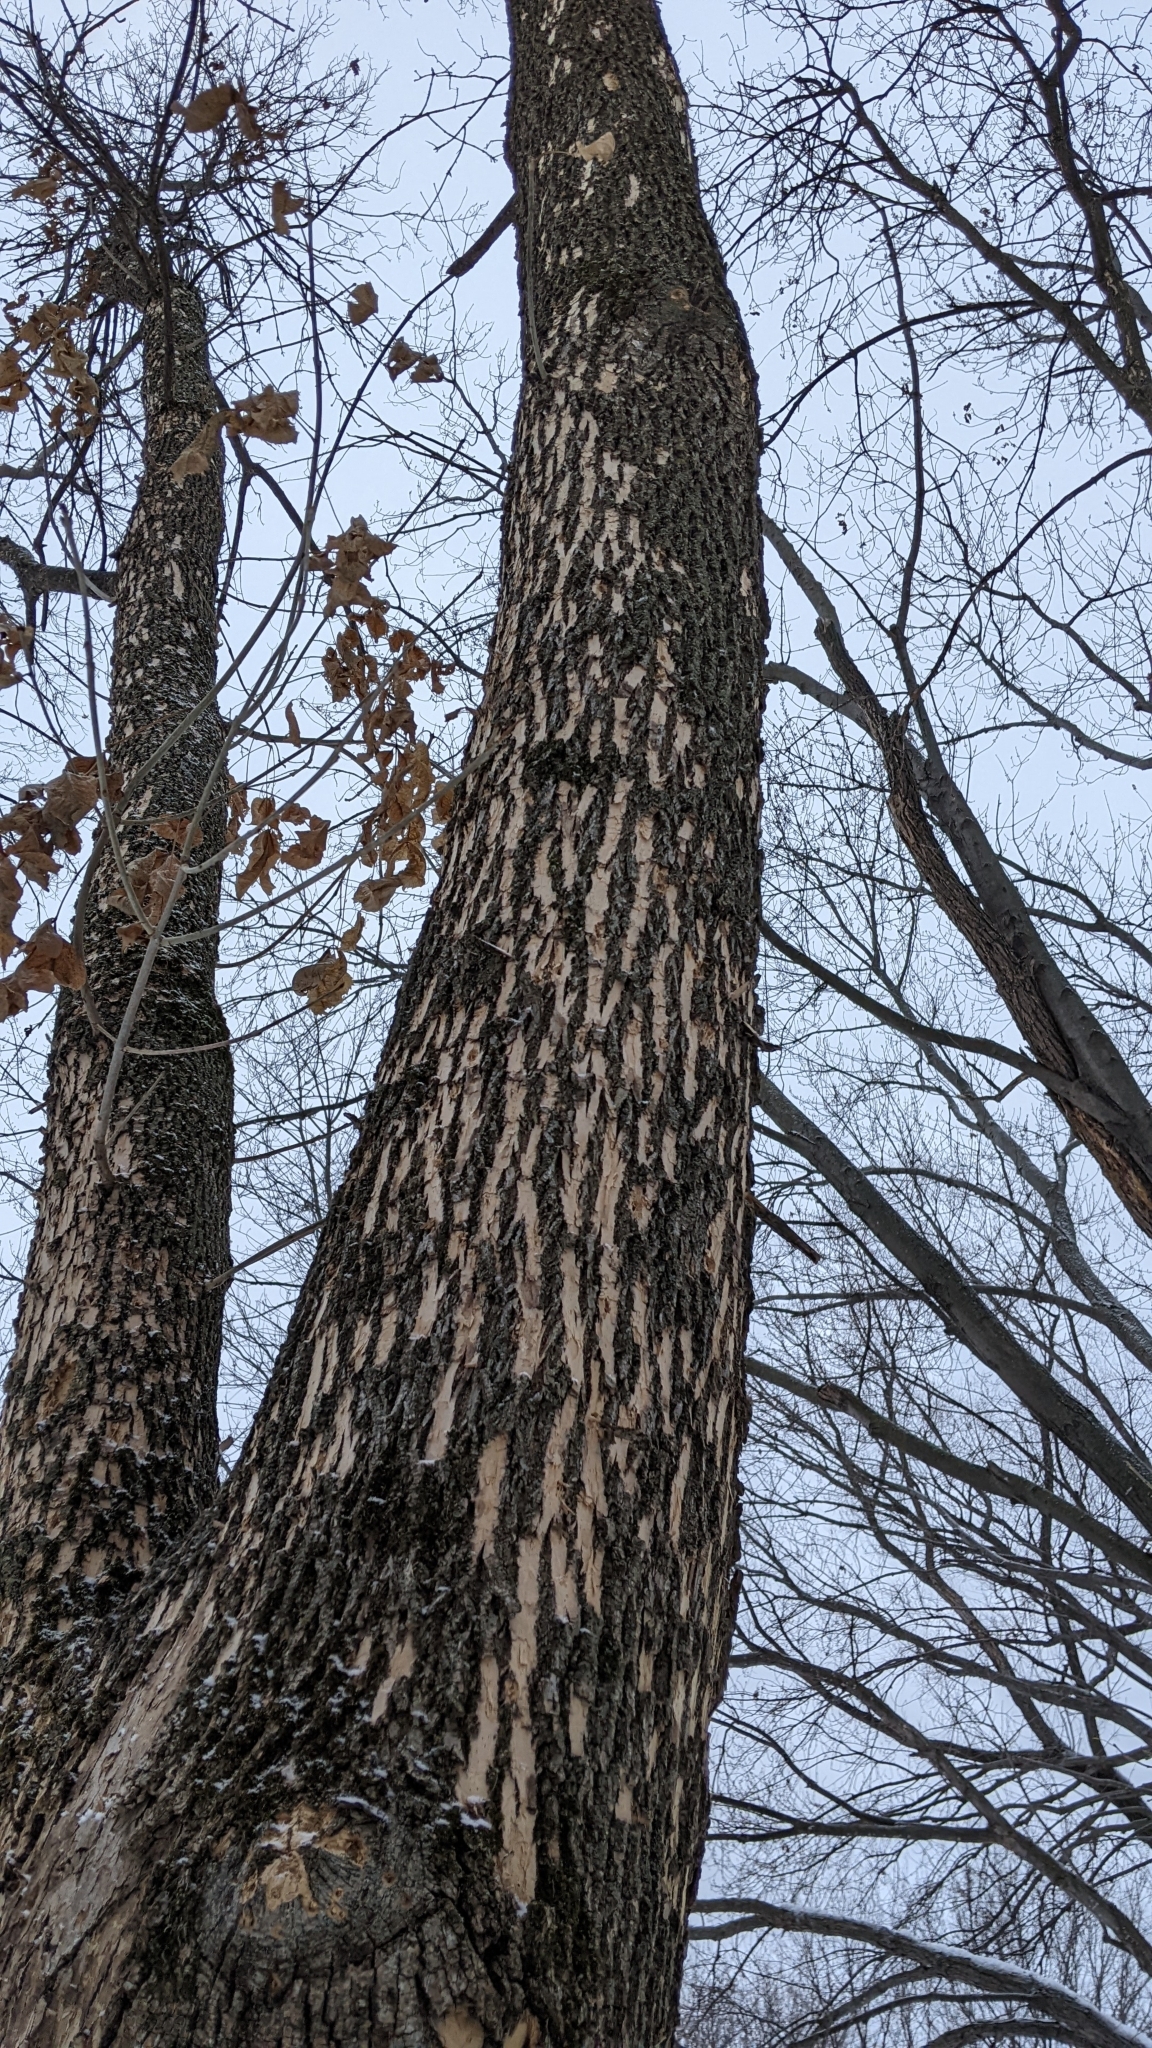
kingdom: Animalia
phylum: Arthropoda
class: Insecta
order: Coleoptera
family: Buprestidae
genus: Agrilus
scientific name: Agrilus planipennis
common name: Emerald ash borer
